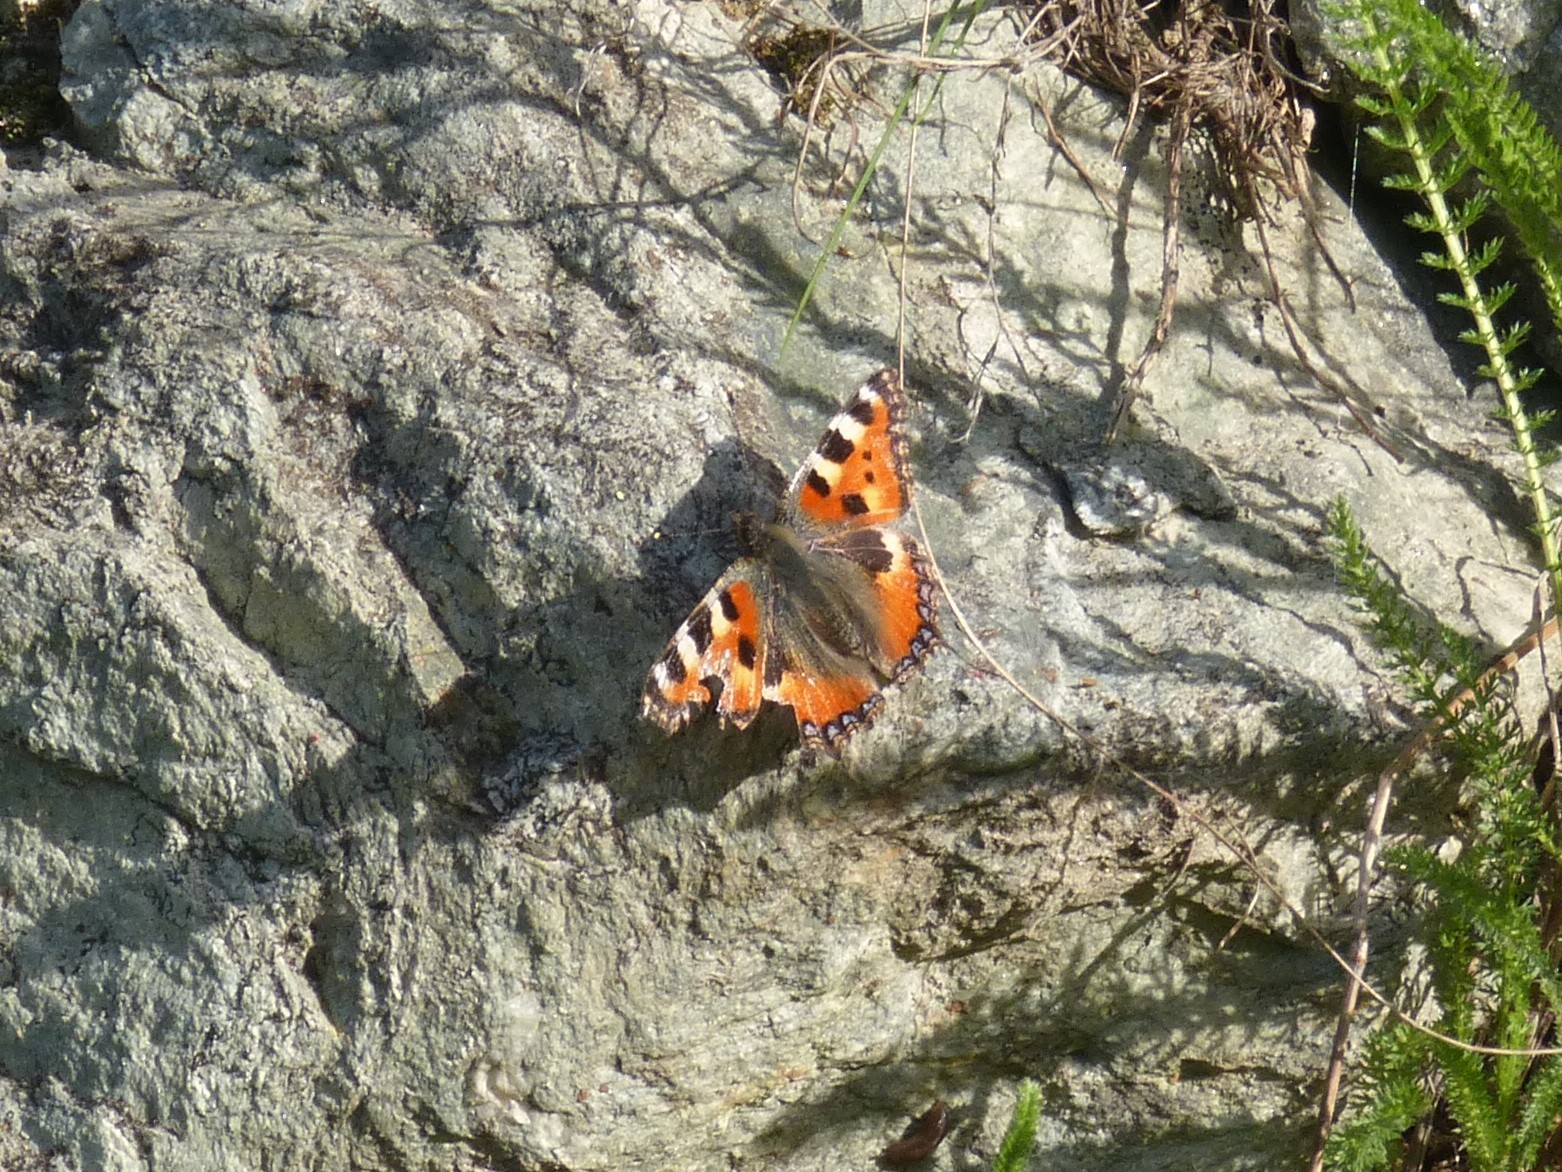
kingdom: Animalia
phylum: Arthropoda
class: Insecta
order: Lepidoptera
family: Nymphalidae
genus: Aglais
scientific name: Aglais urticae
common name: Small tortoiseshell
